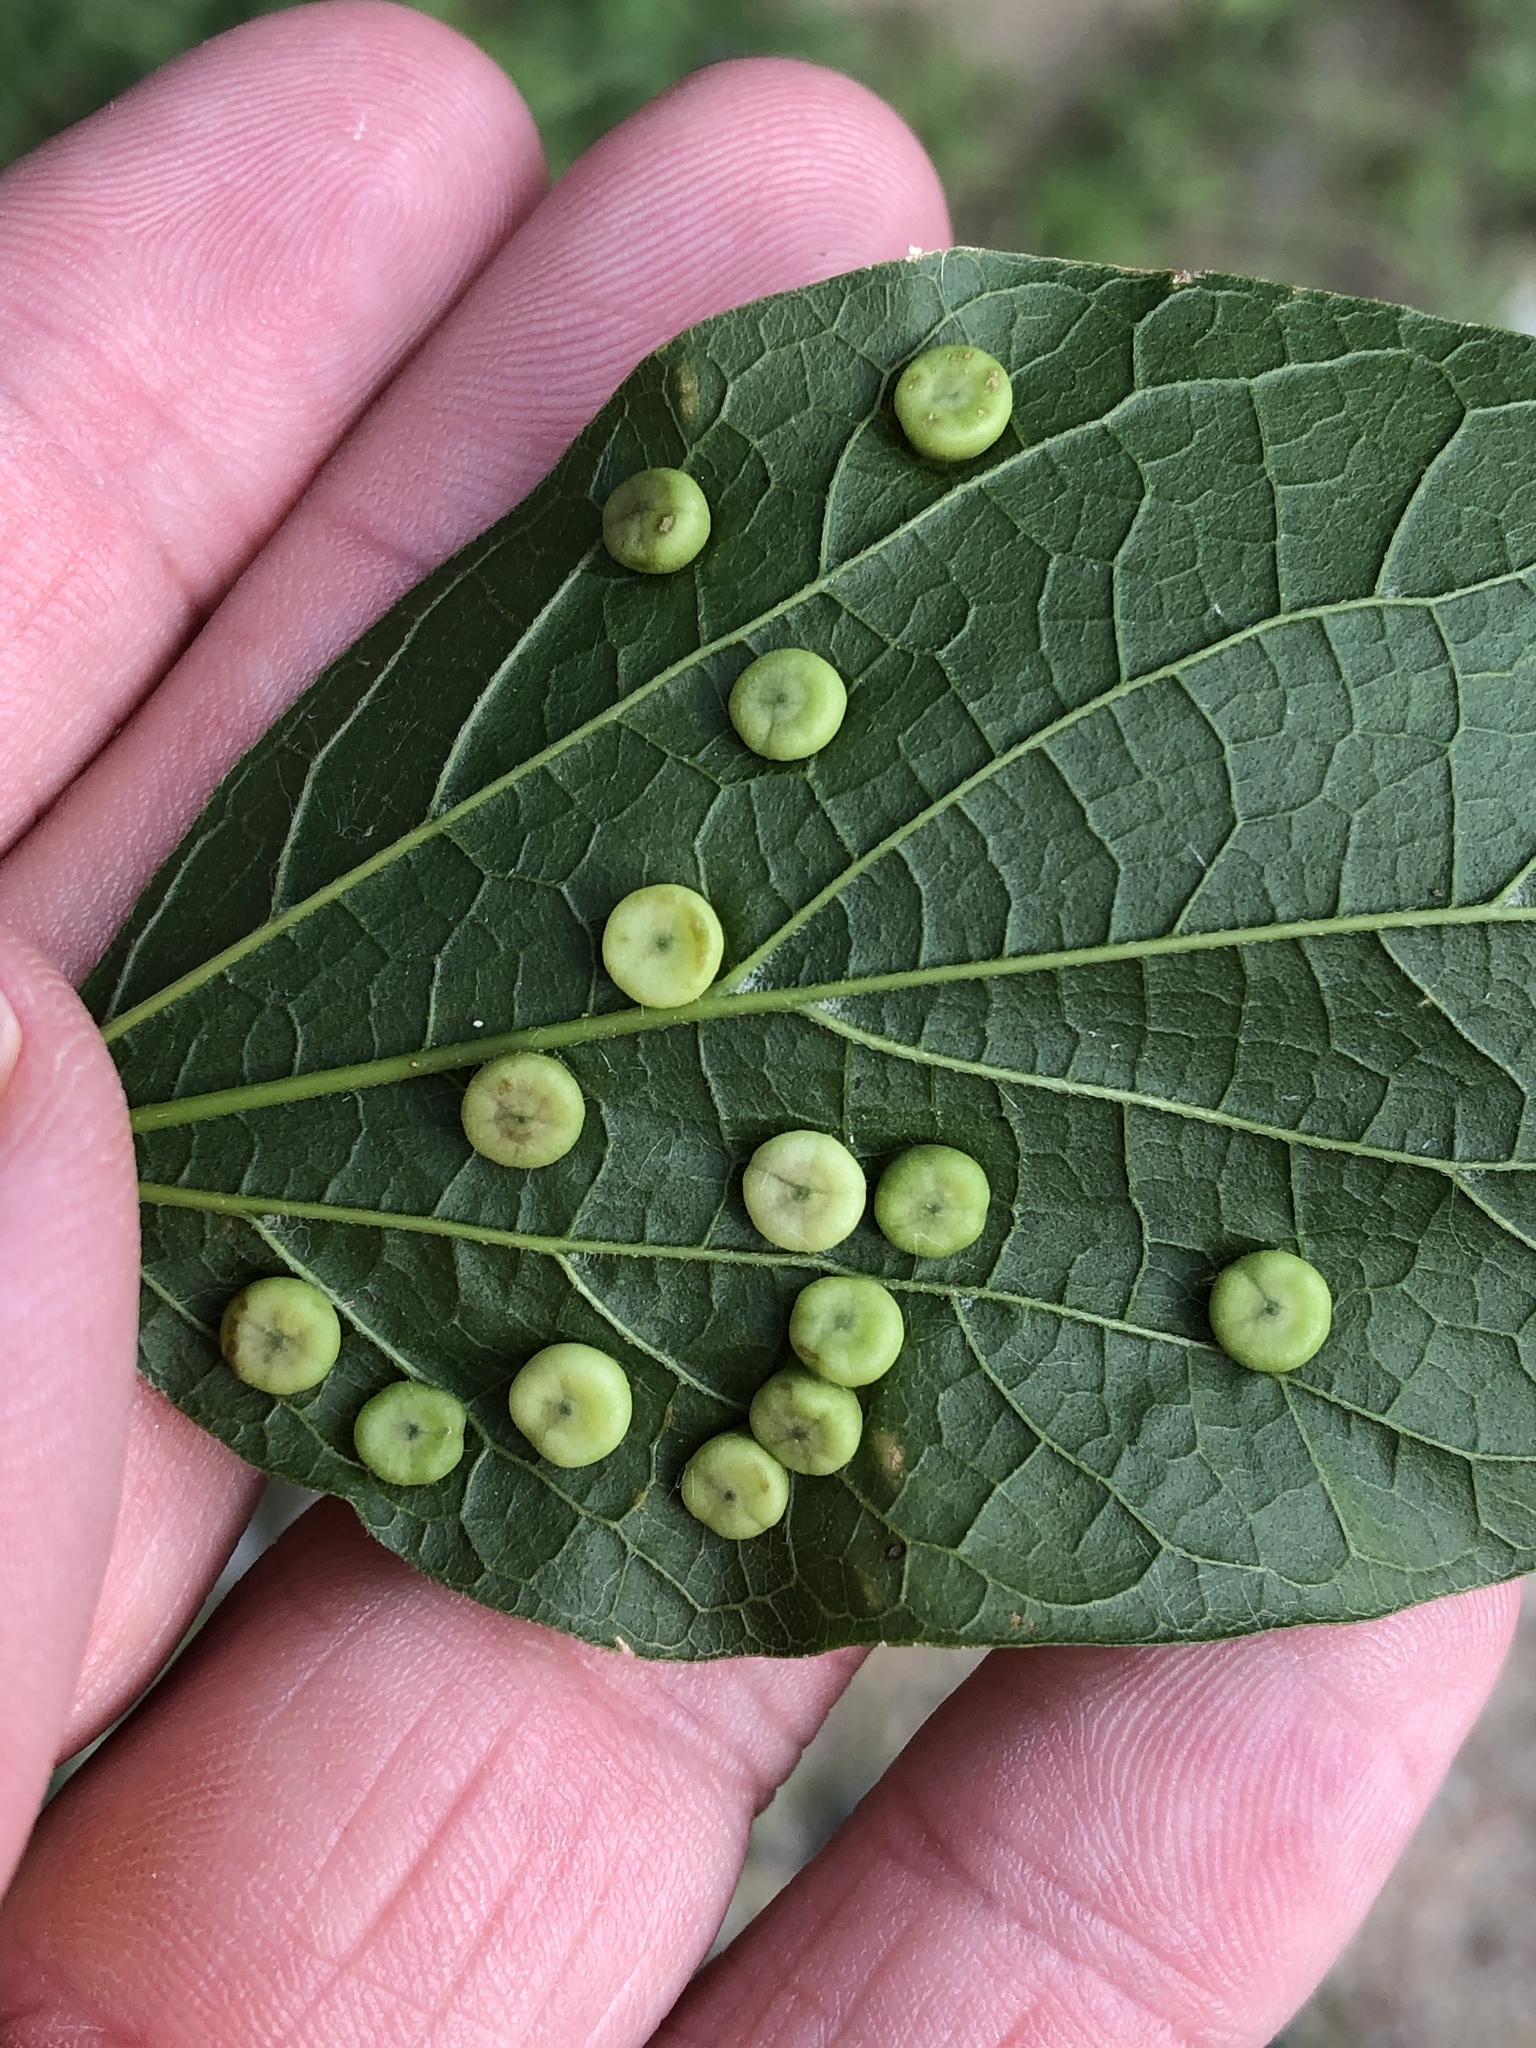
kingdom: Animalia
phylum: Arthropoda
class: Insecta
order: Hemiptera
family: Aphalaridae
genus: Pachypsylla
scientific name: Pachypsylla celtidismamma
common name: Hackberry nipplegall psyllid
